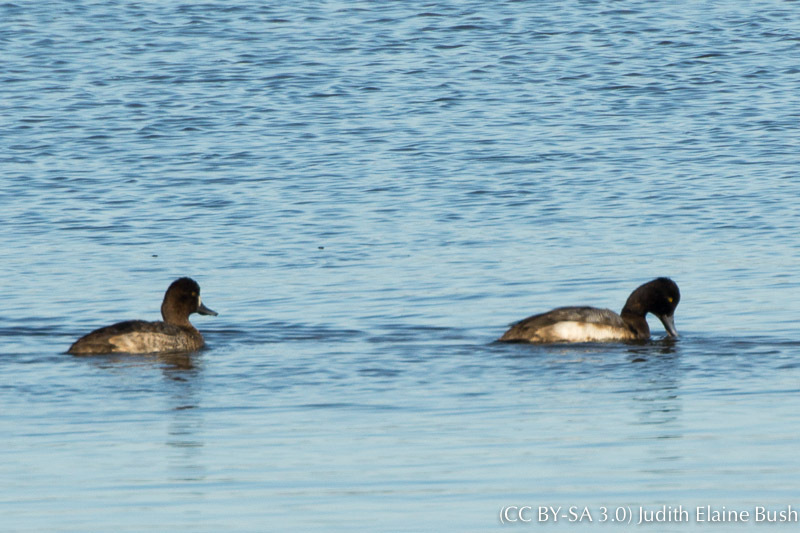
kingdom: Animalia
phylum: Chordata
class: Aves
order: Anseriformes
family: Anatidae
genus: Aythya
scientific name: Aythya affinis
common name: Lesser scaup
